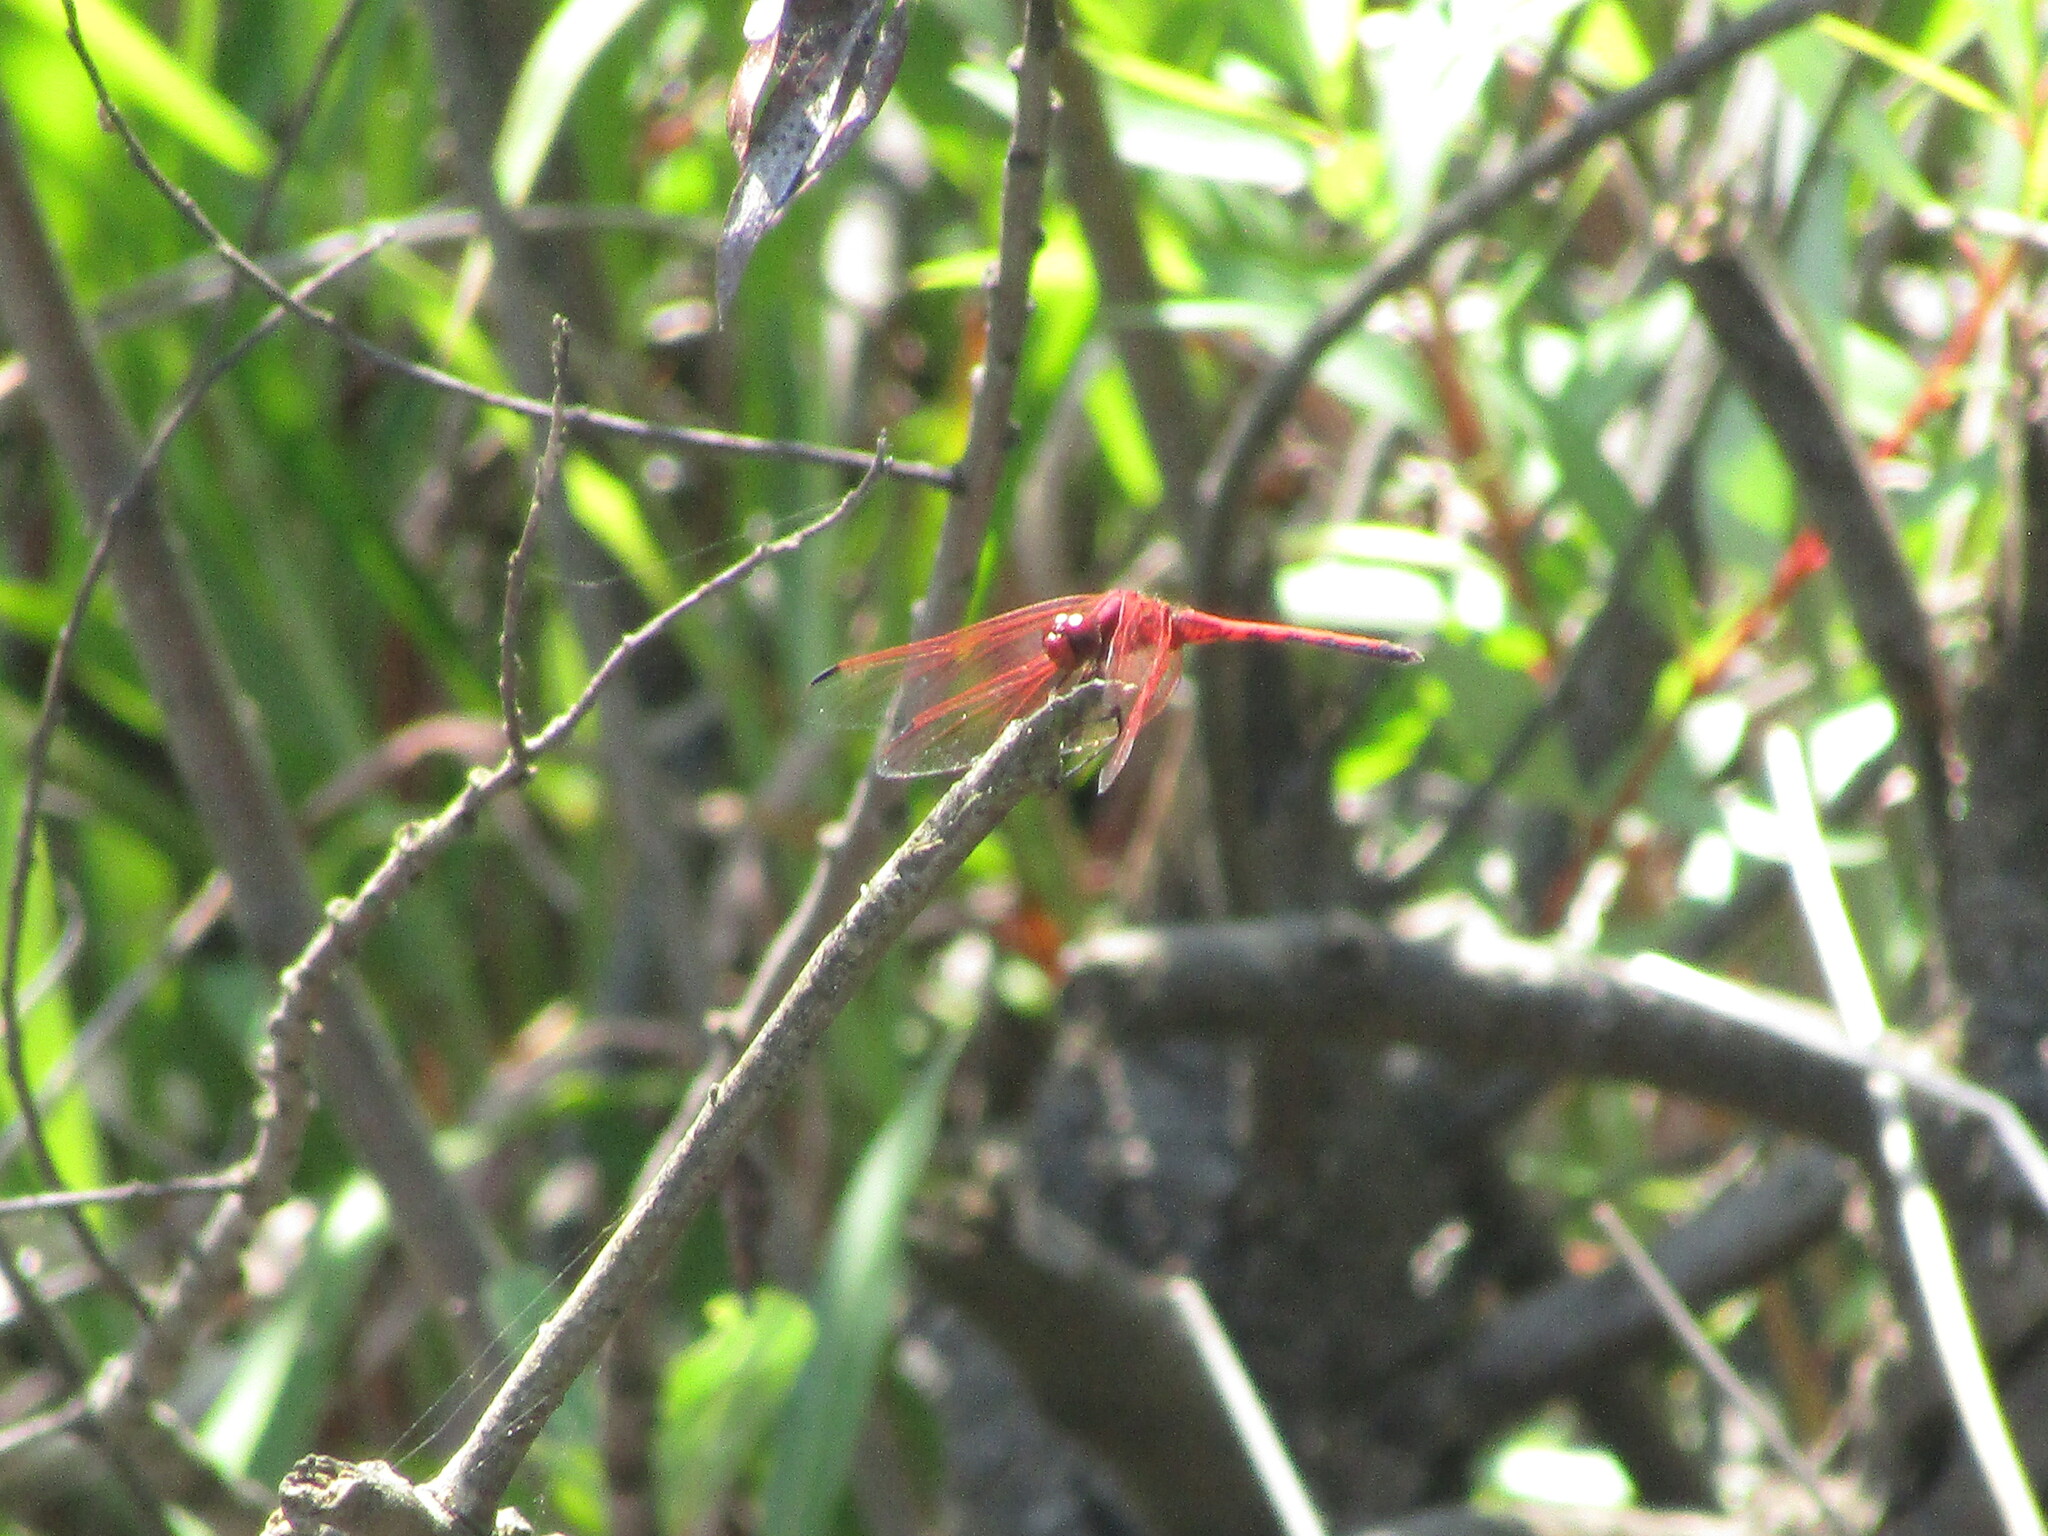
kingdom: Animalia
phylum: Arthropoda
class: Insecta
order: Odonata
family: Libellulidae
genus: Trithemis
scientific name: Trithemis arteriosa
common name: Red-veined dropwing
